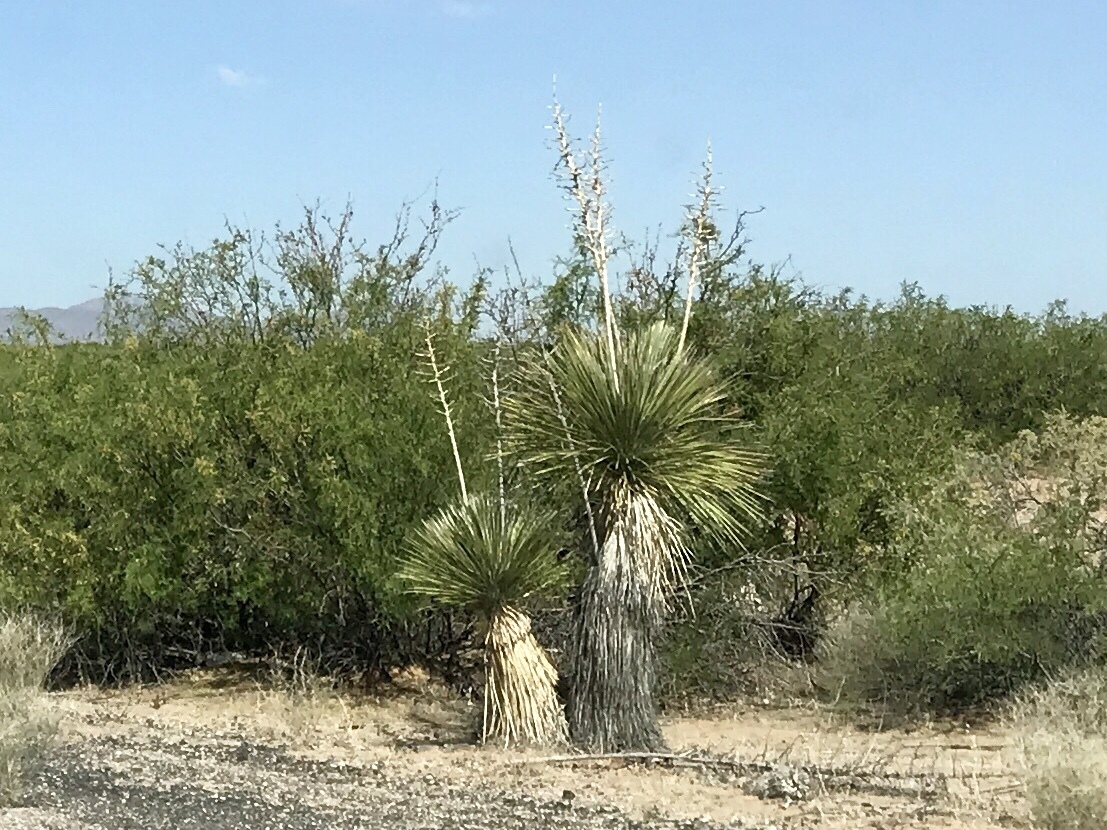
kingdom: Plantae
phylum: Tracheophyta
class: Liliopsida
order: Asparagales
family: Asparagaceae
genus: Yucca
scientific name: Yucca elata
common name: Palmella
